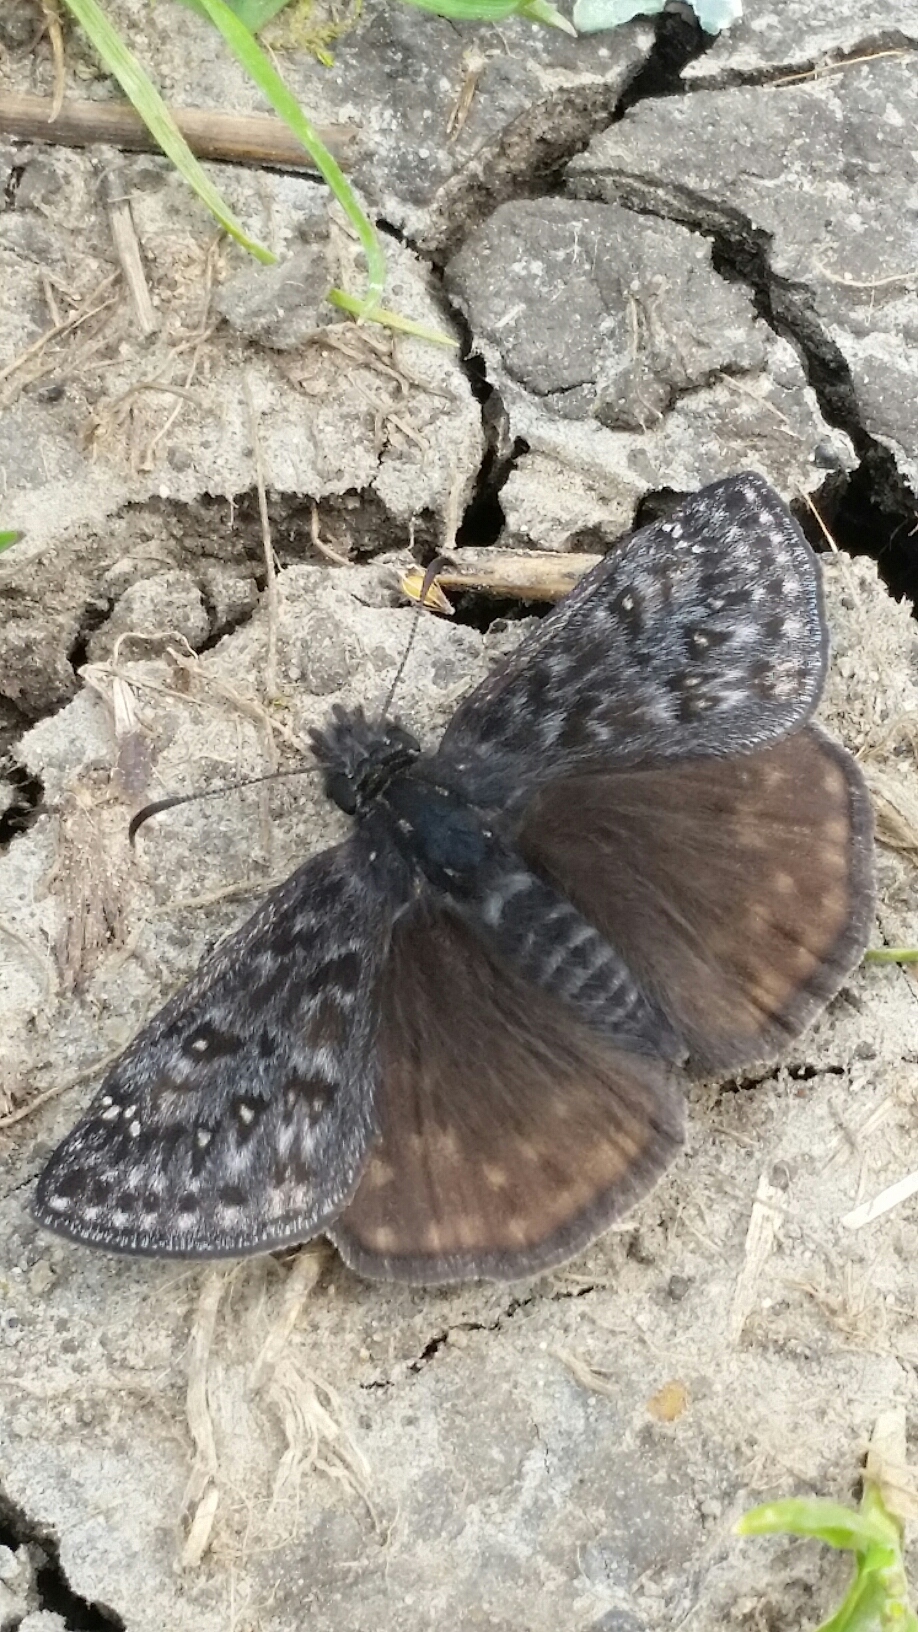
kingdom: Animalia
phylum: Arthropoda
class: Insecta
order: Lepidoptera
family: Hesperiidae
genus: Erynnis
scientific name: Erynnis propertius
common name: Propertius duskywing
